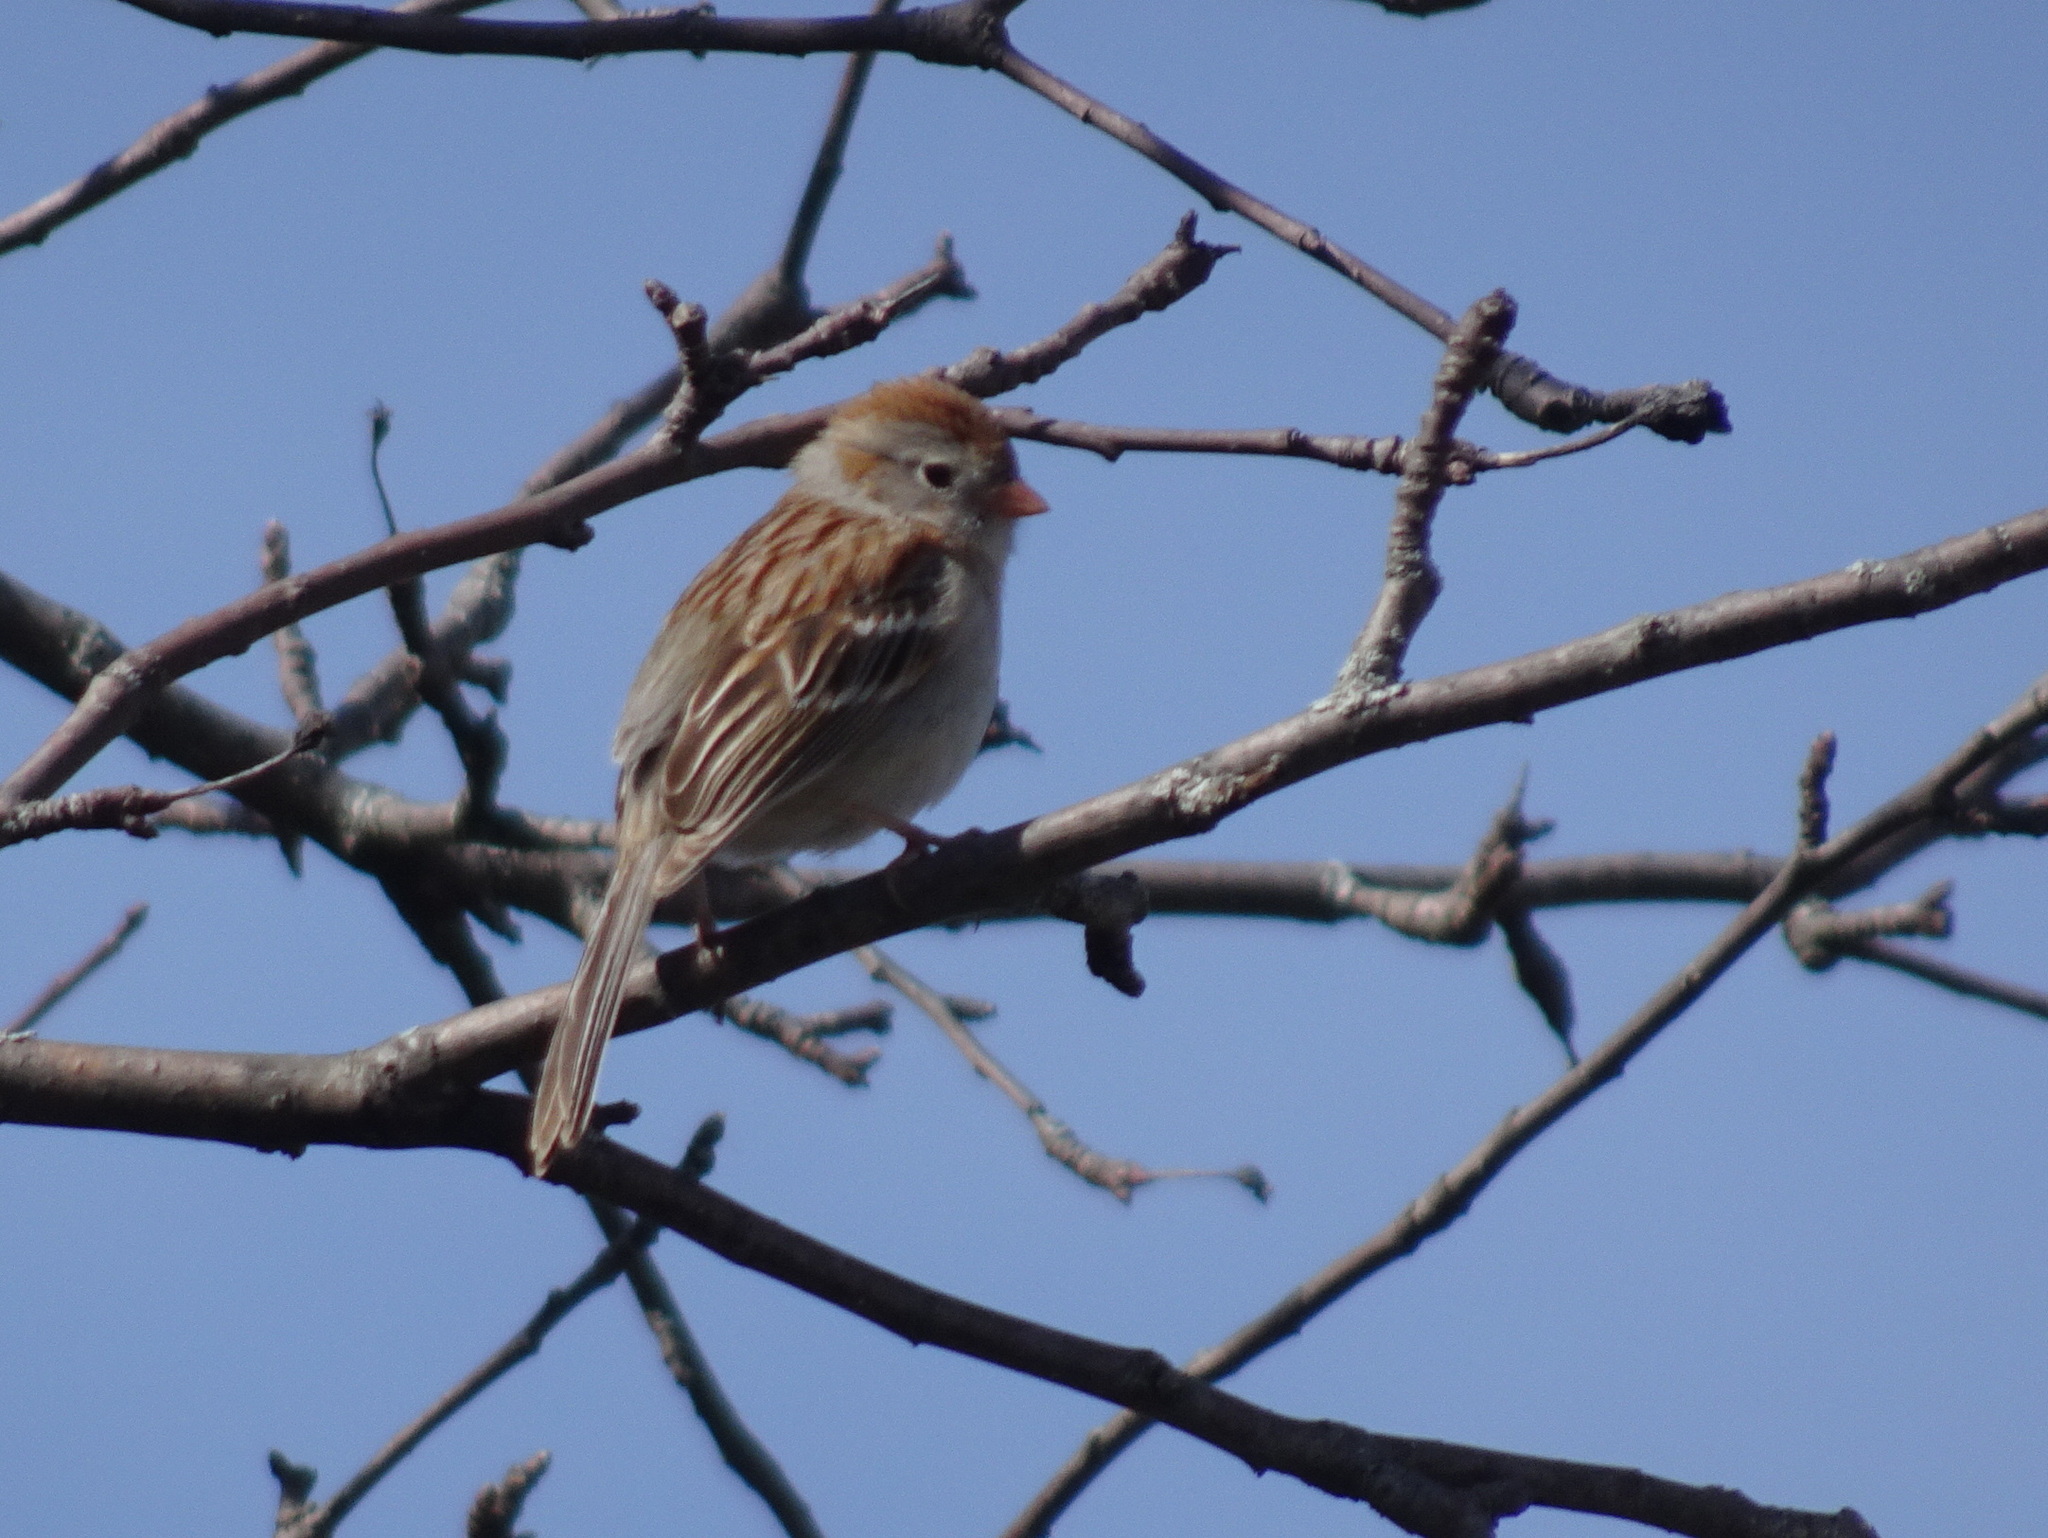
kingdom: Animalia
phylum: Chordata
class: Aves
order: Passeriformes
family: Passerellidae
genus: Spizella
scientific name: Spizella pusilla
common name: Field sparrow
